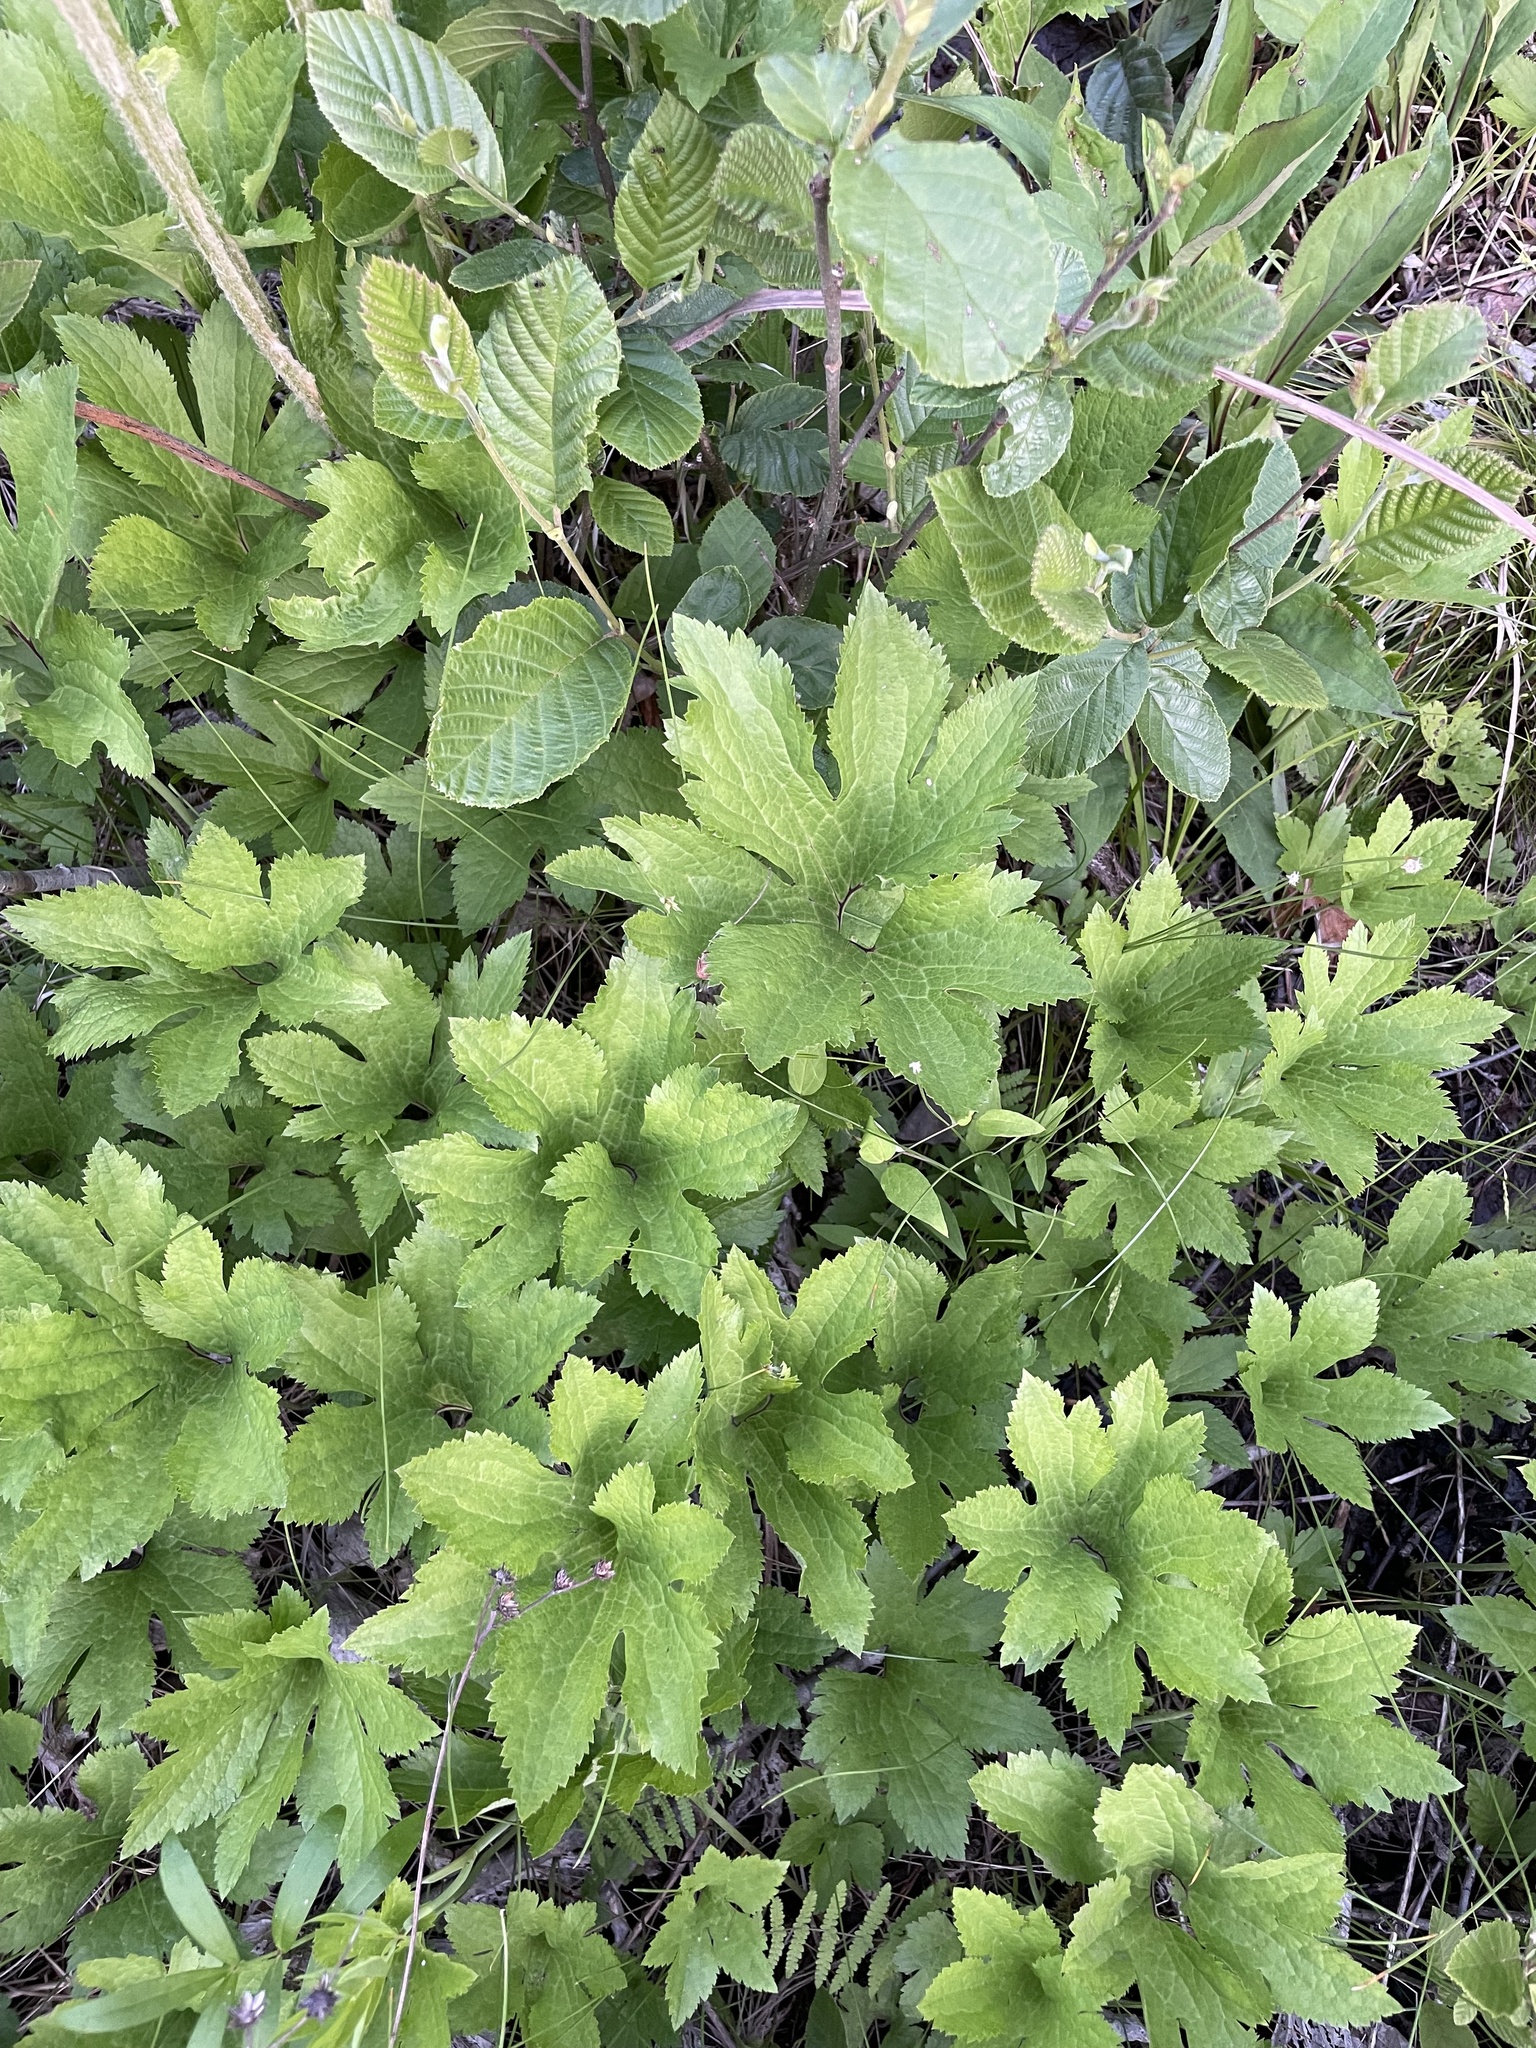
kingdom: Plantae
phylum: Tracheophyta
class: Magnoliopsida
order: Ranunculales
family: Ranunculaceae
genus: Trautvetteria
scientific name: Trautvetteria carolinensis
